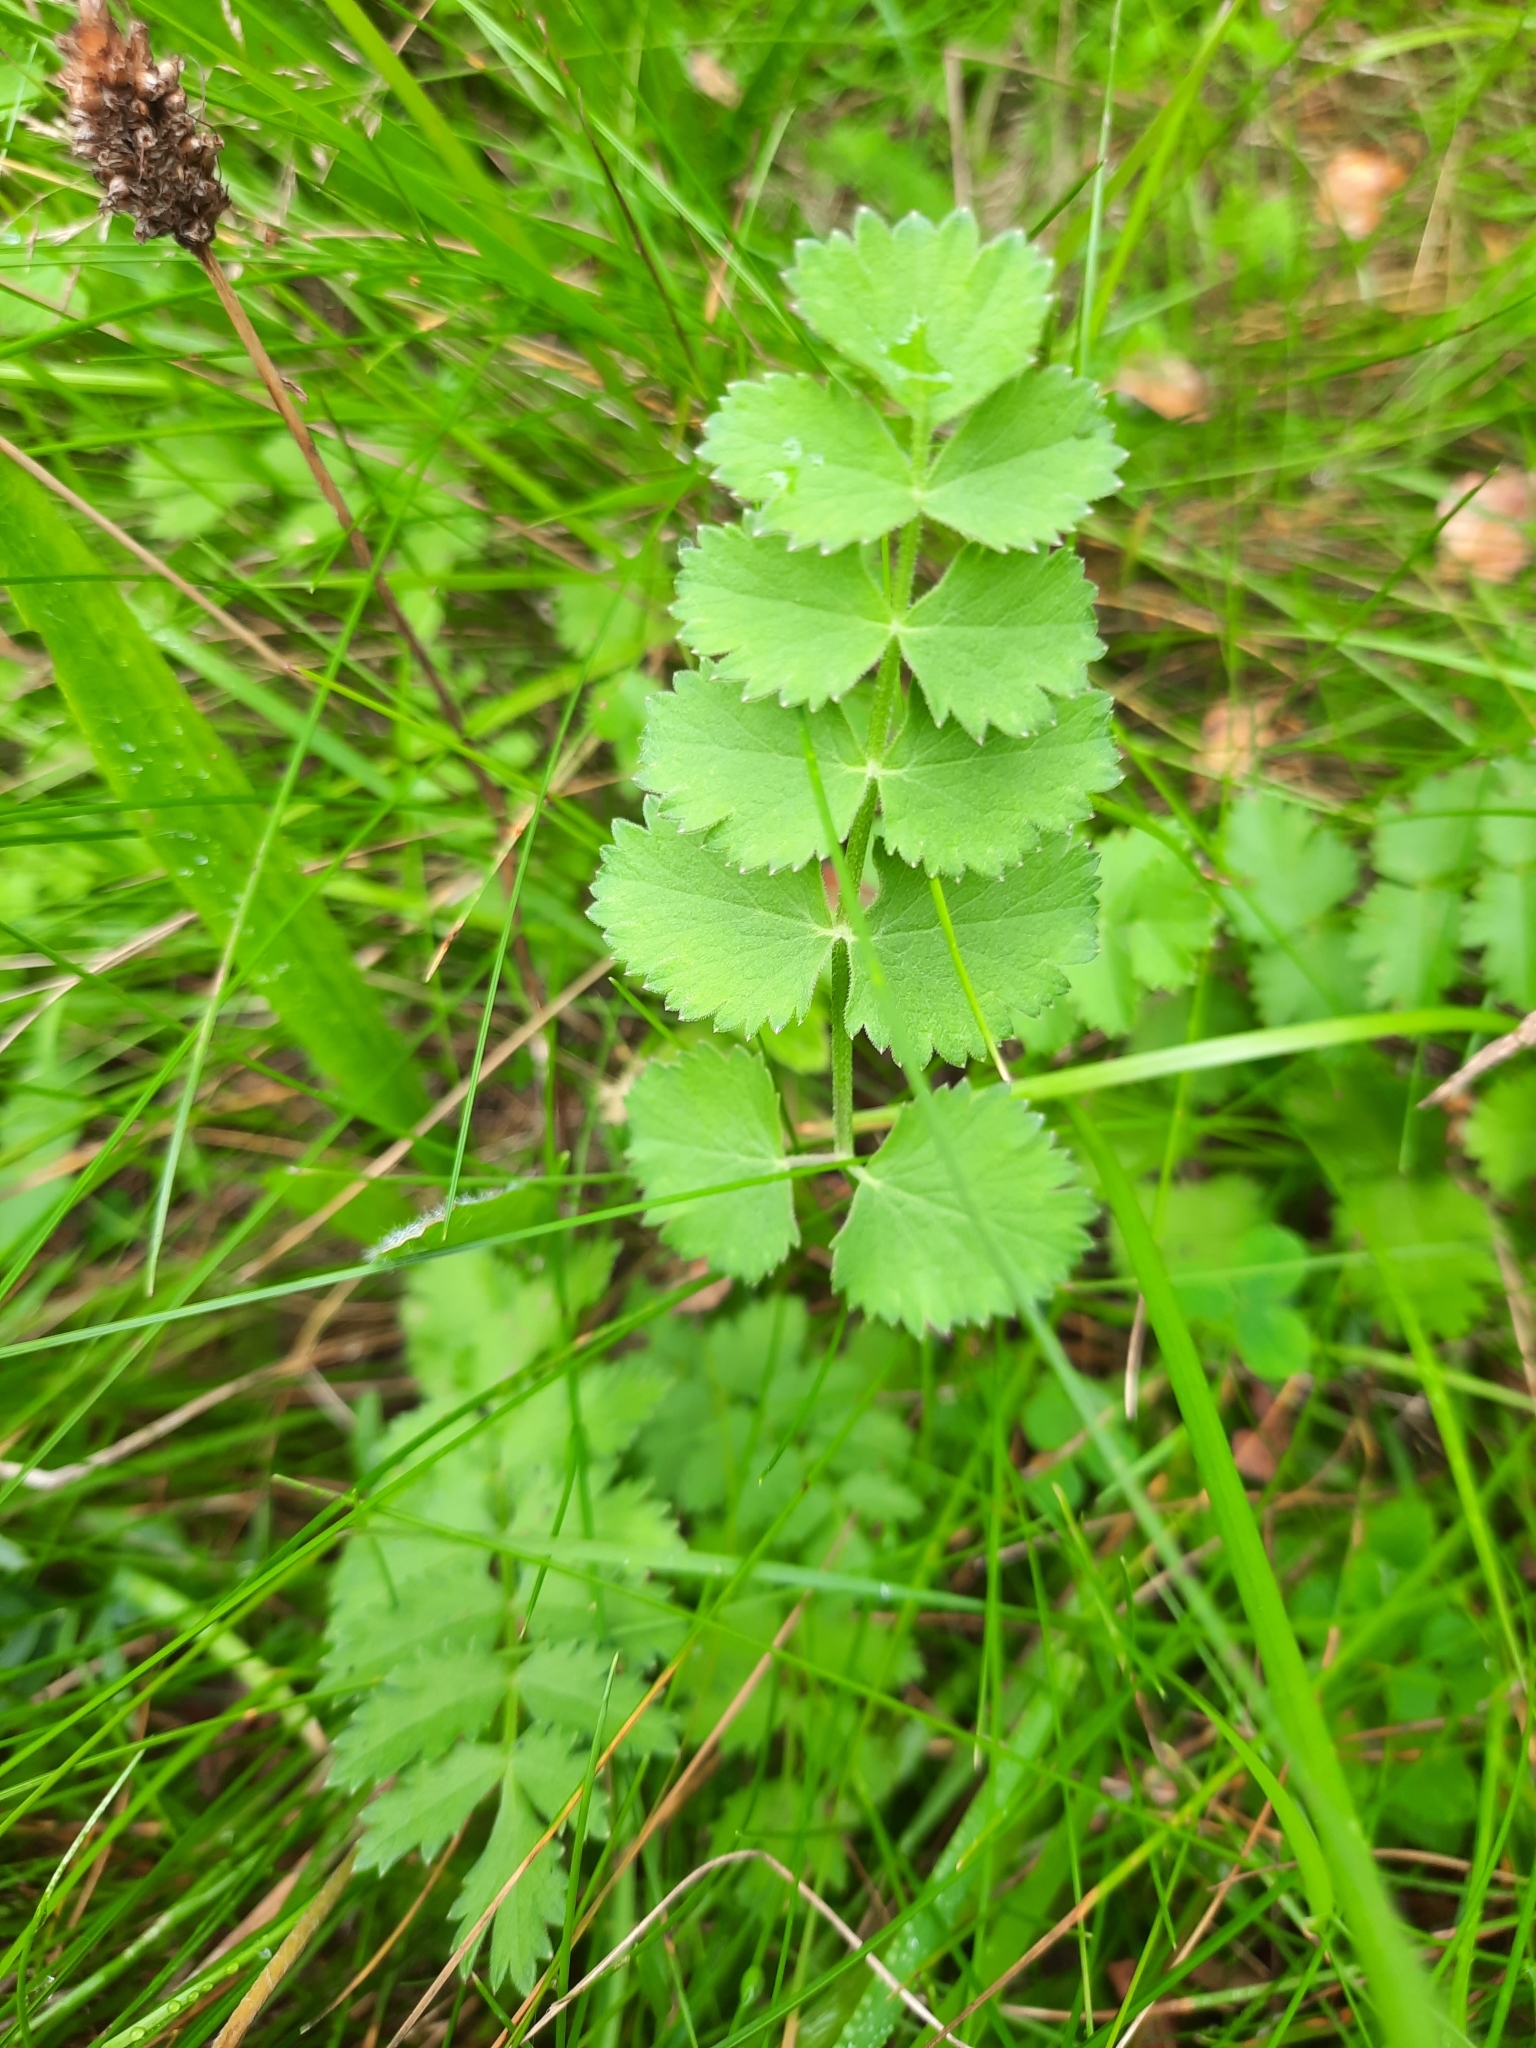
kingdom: Plantae
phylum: Tracheophyta
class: Magnoliopsida
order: Apiales
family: Apiaceae
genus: Pimpinella
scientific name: Pimpinella saxifraga
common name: Burnet-saxifrage
